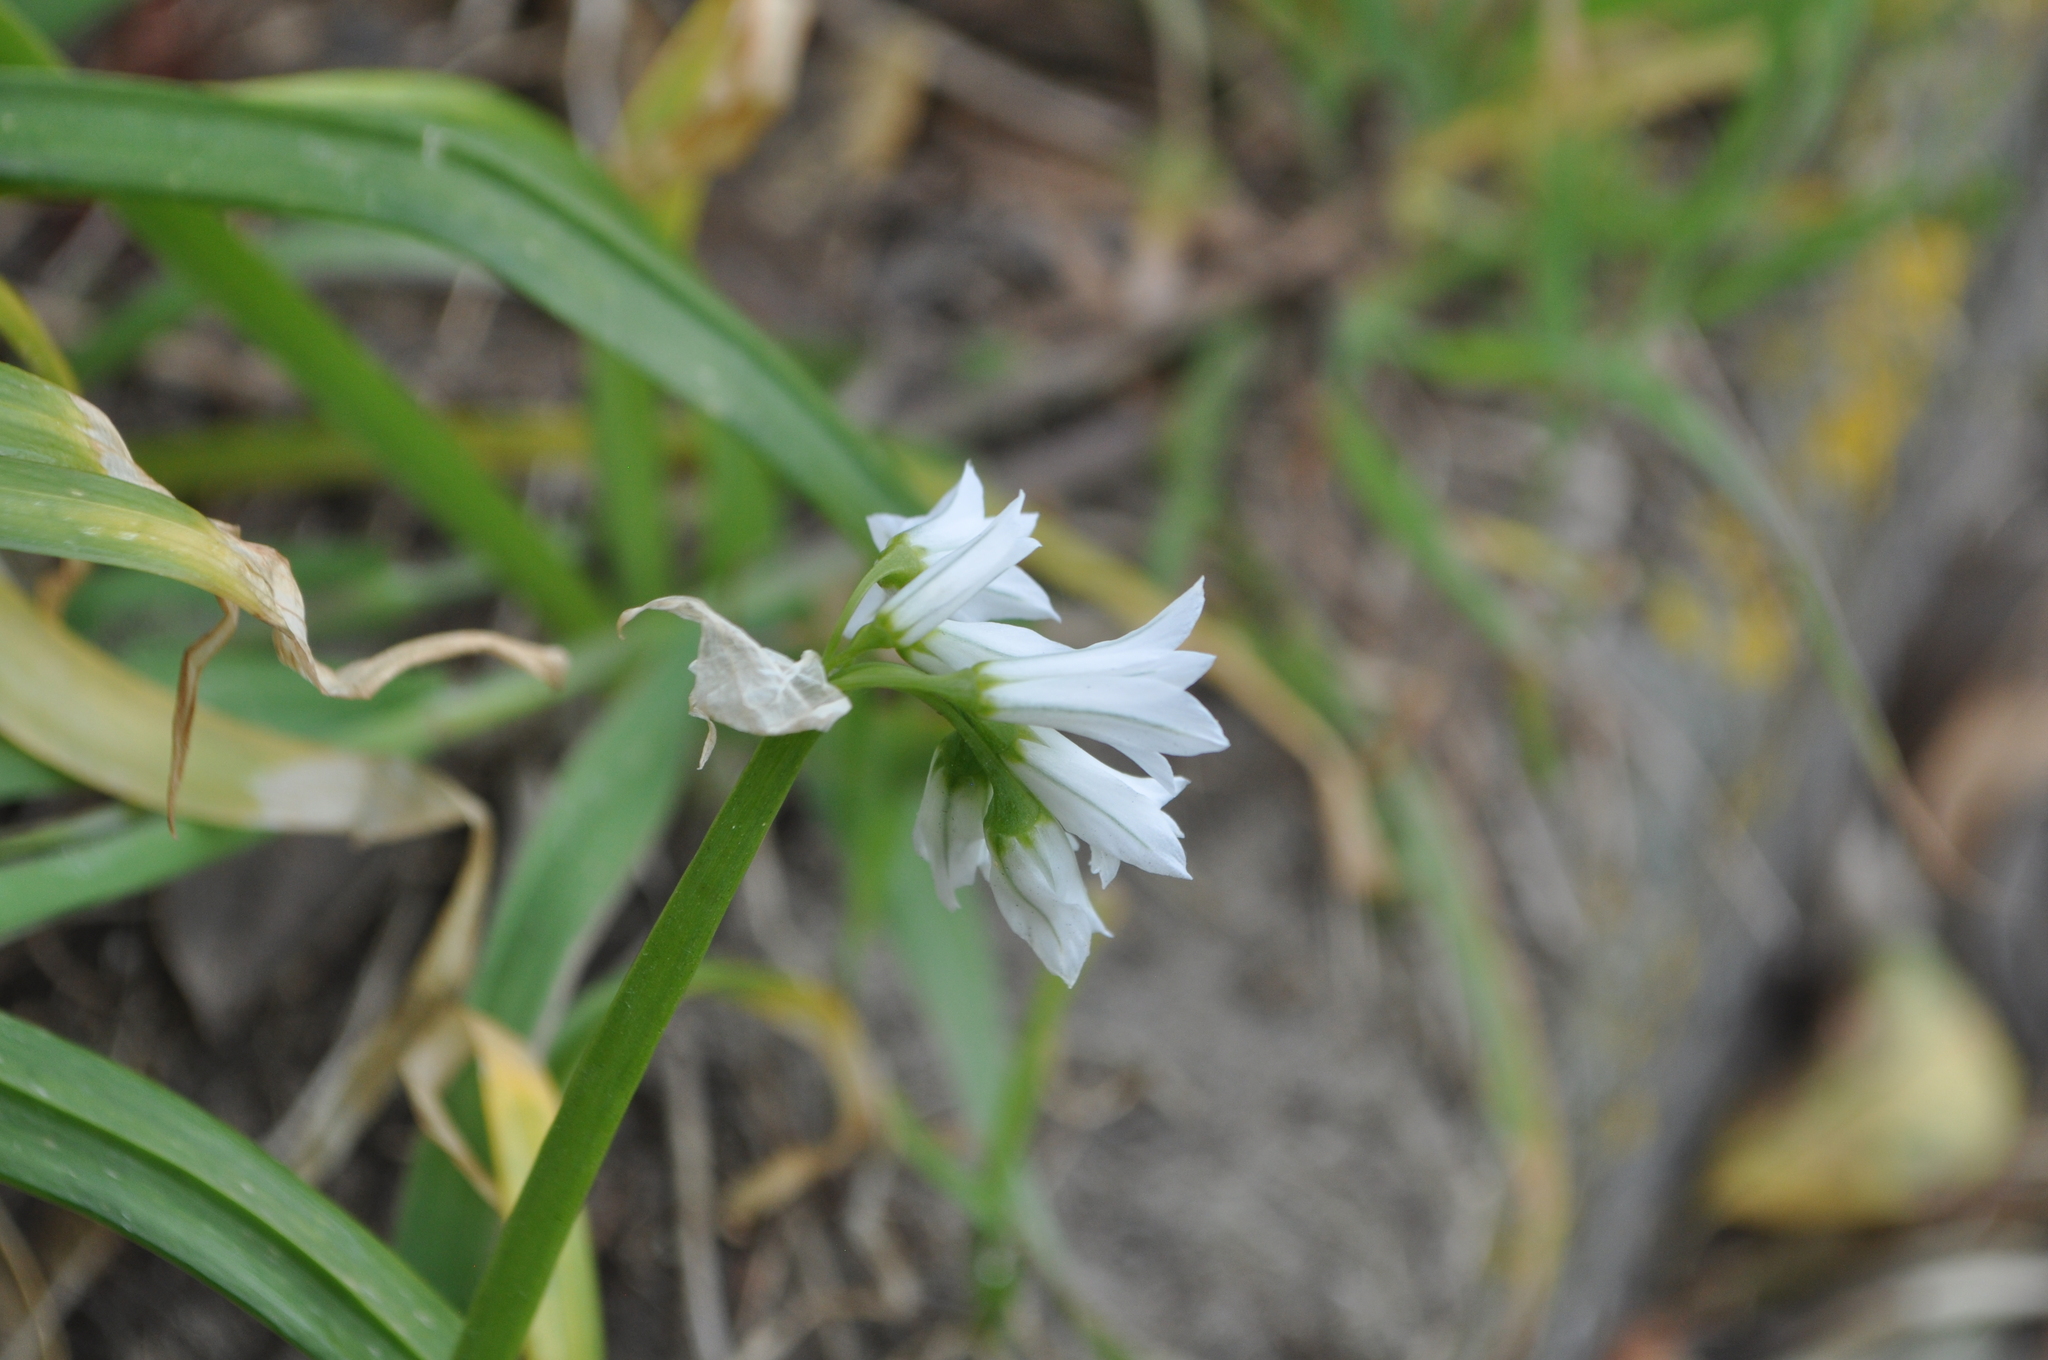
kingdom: Plantae
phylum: Tracheophyta
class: Liliopsida
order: Asparagales
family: Amaryllidaceae
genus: Allium
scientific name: Allium triquetrum
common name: Three-cornered garlic
